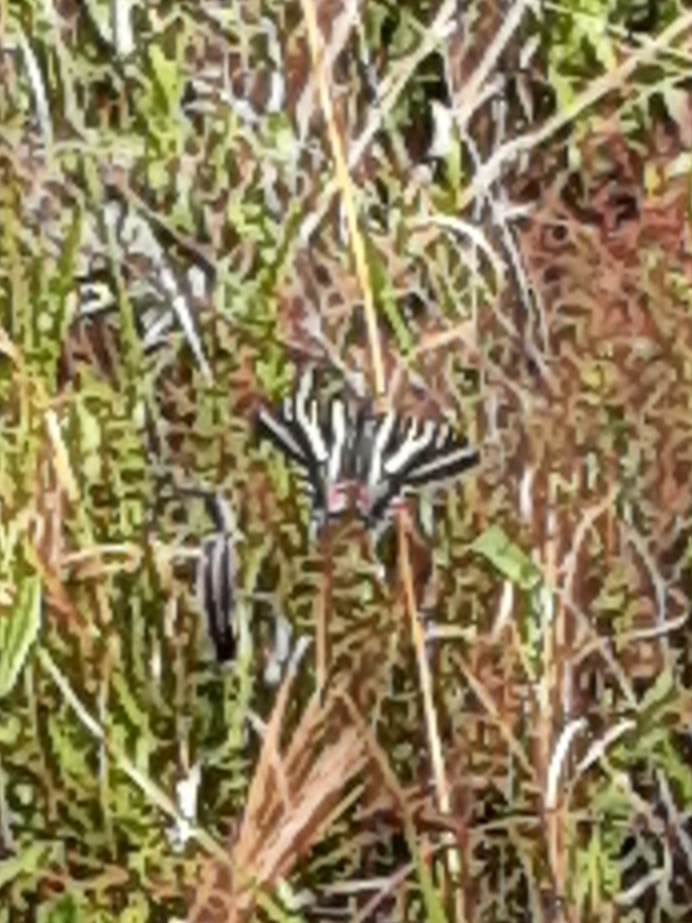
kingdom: Animalia
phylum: Arthropoda
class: Insecta
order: Lepidoptera
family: Papilionidae
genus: Protographium
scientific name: Protographium marcellus
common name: Zebra swallowtail
